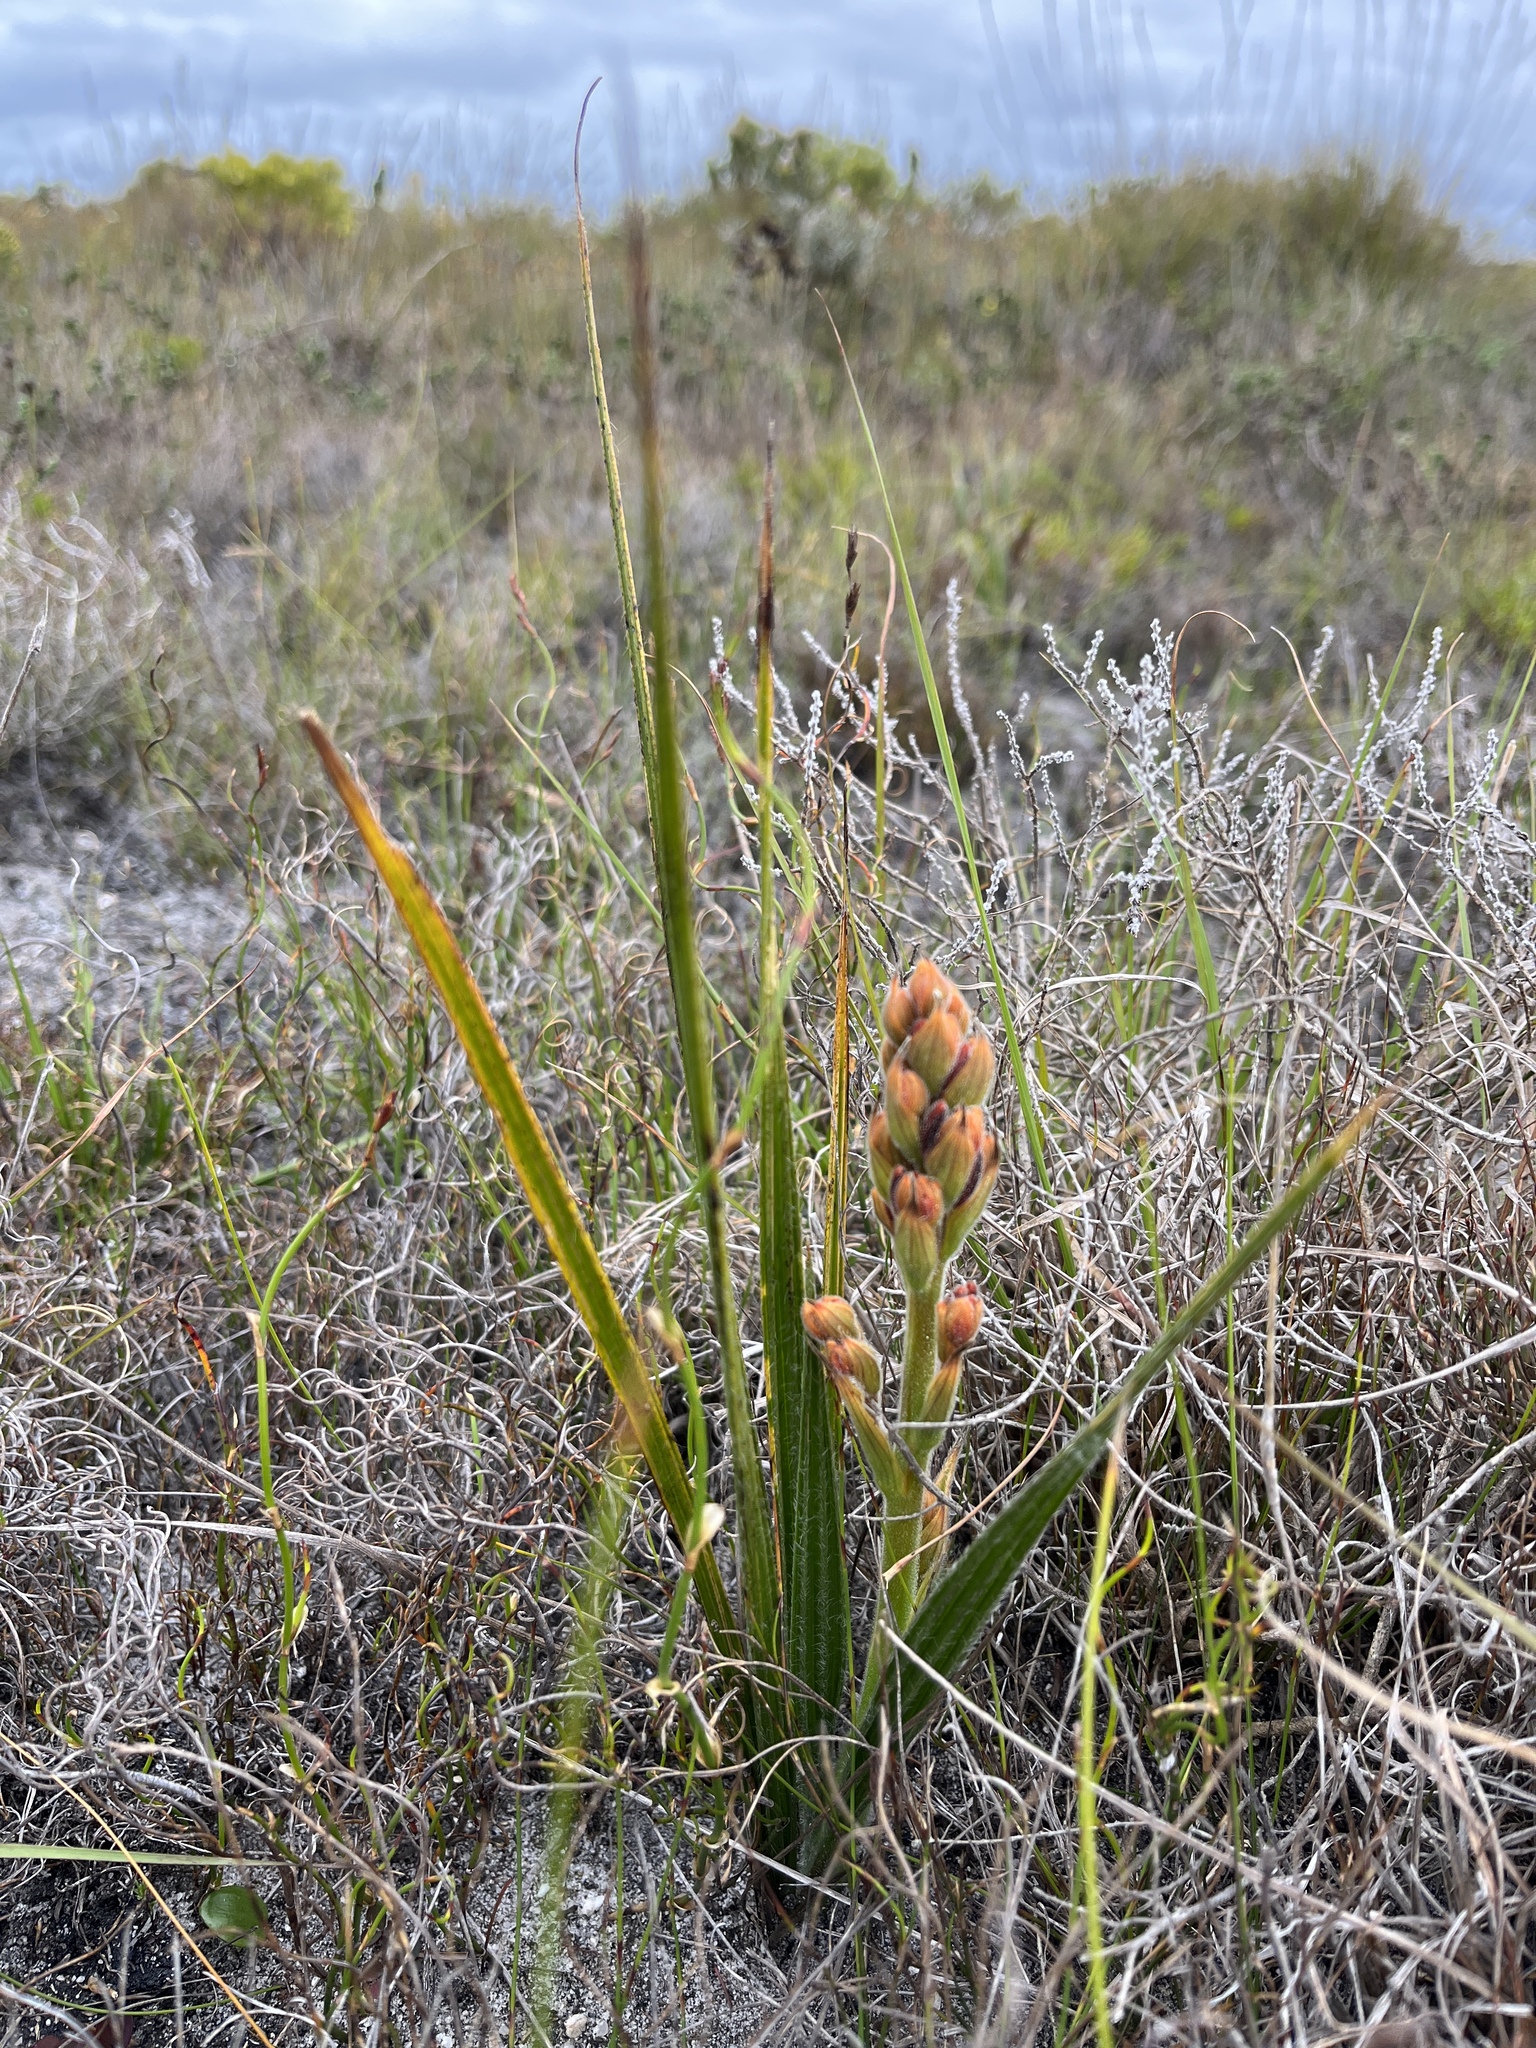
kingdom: Plantae
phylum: Tracheophyta
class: Liliopsida
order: Commelinales
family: Haemodoraceae
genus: Wachendorfia
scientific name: Wachendorfia paniculata
